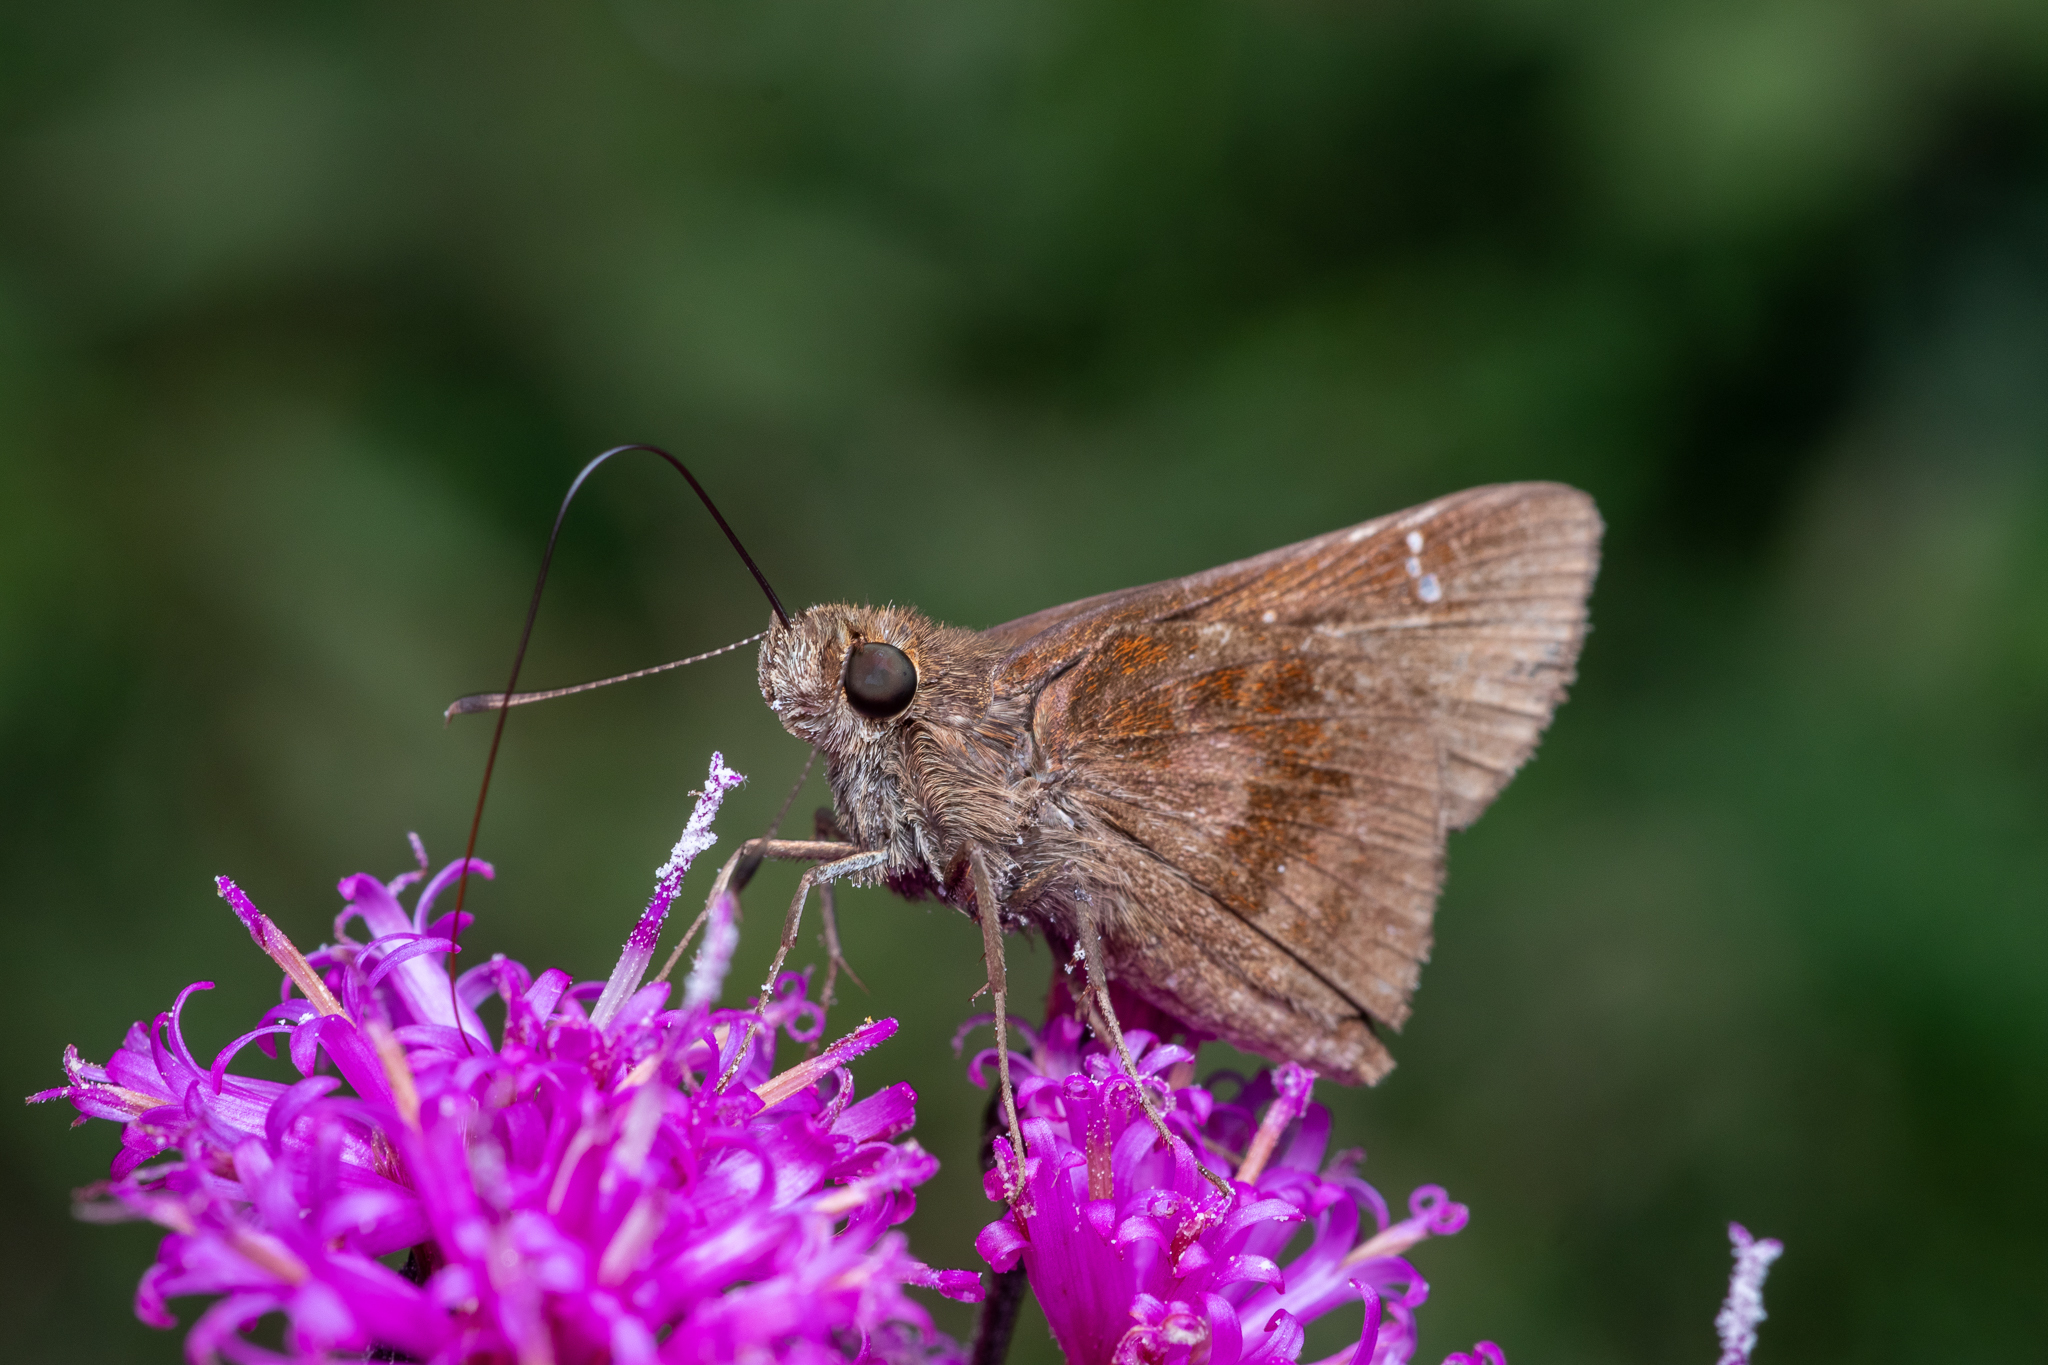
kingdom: Animalia
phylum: Arthropoda
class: Insecta
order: Lepidoptera
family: Hesperiidae
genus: Lerema
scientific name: Lerema accius
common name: Clouded skipper
